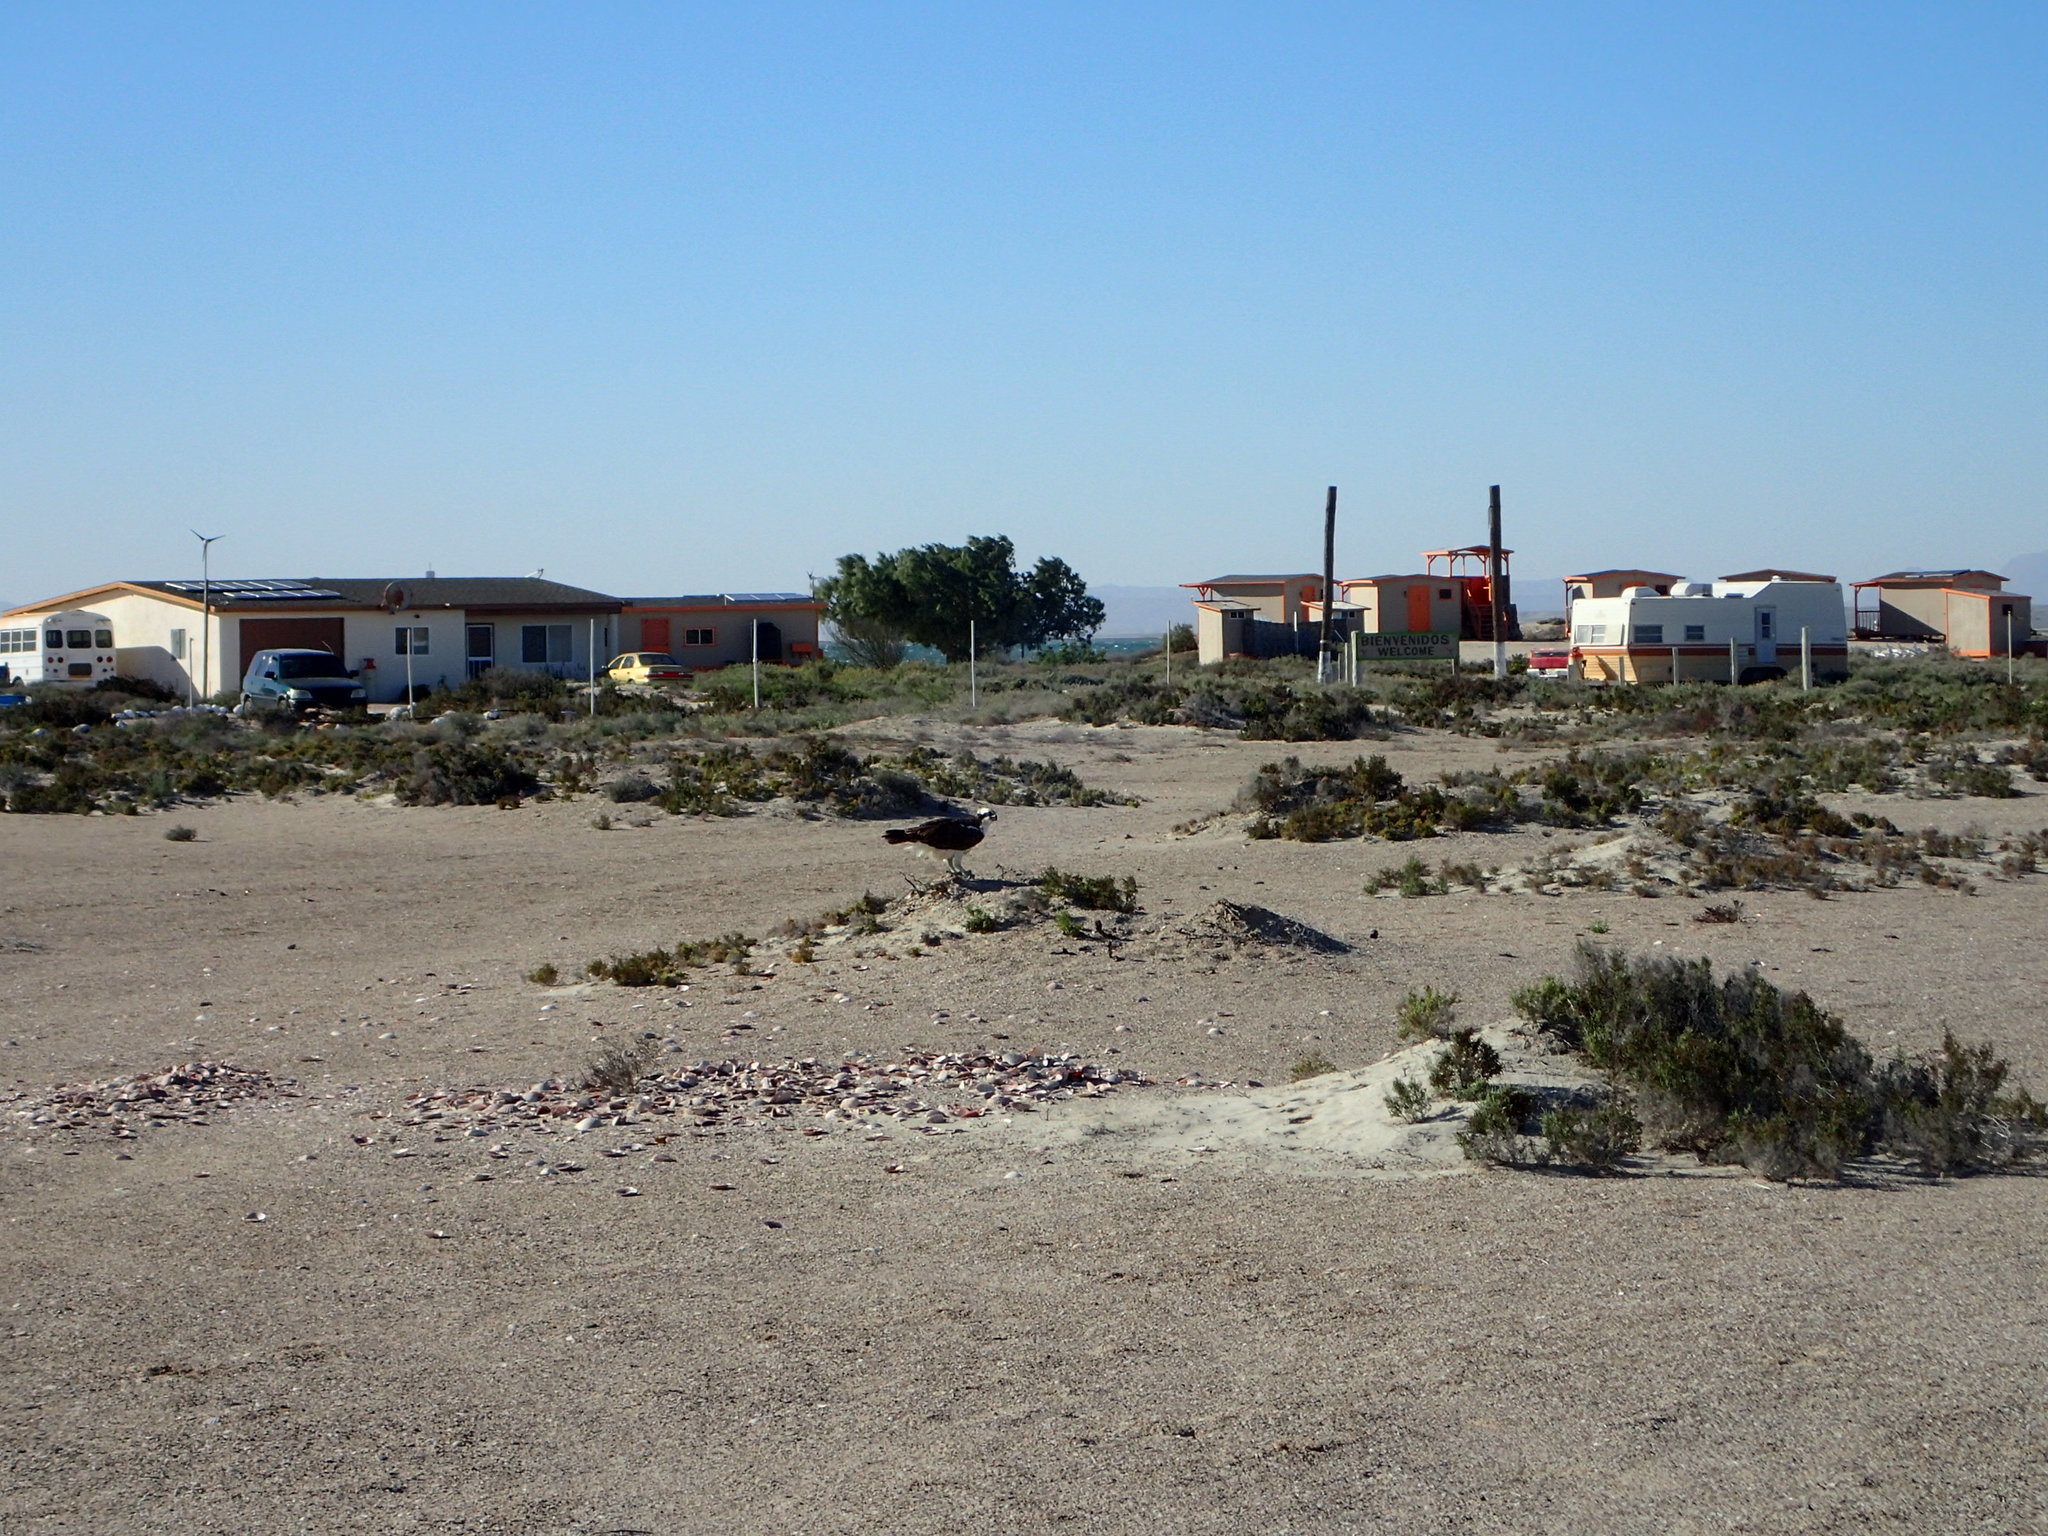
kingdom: Animalia
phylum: Chordata
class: Aves
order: Accipitriformes
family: Pandionidae
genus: Pandion
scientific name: Pandion haliaetus
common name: Osprey
